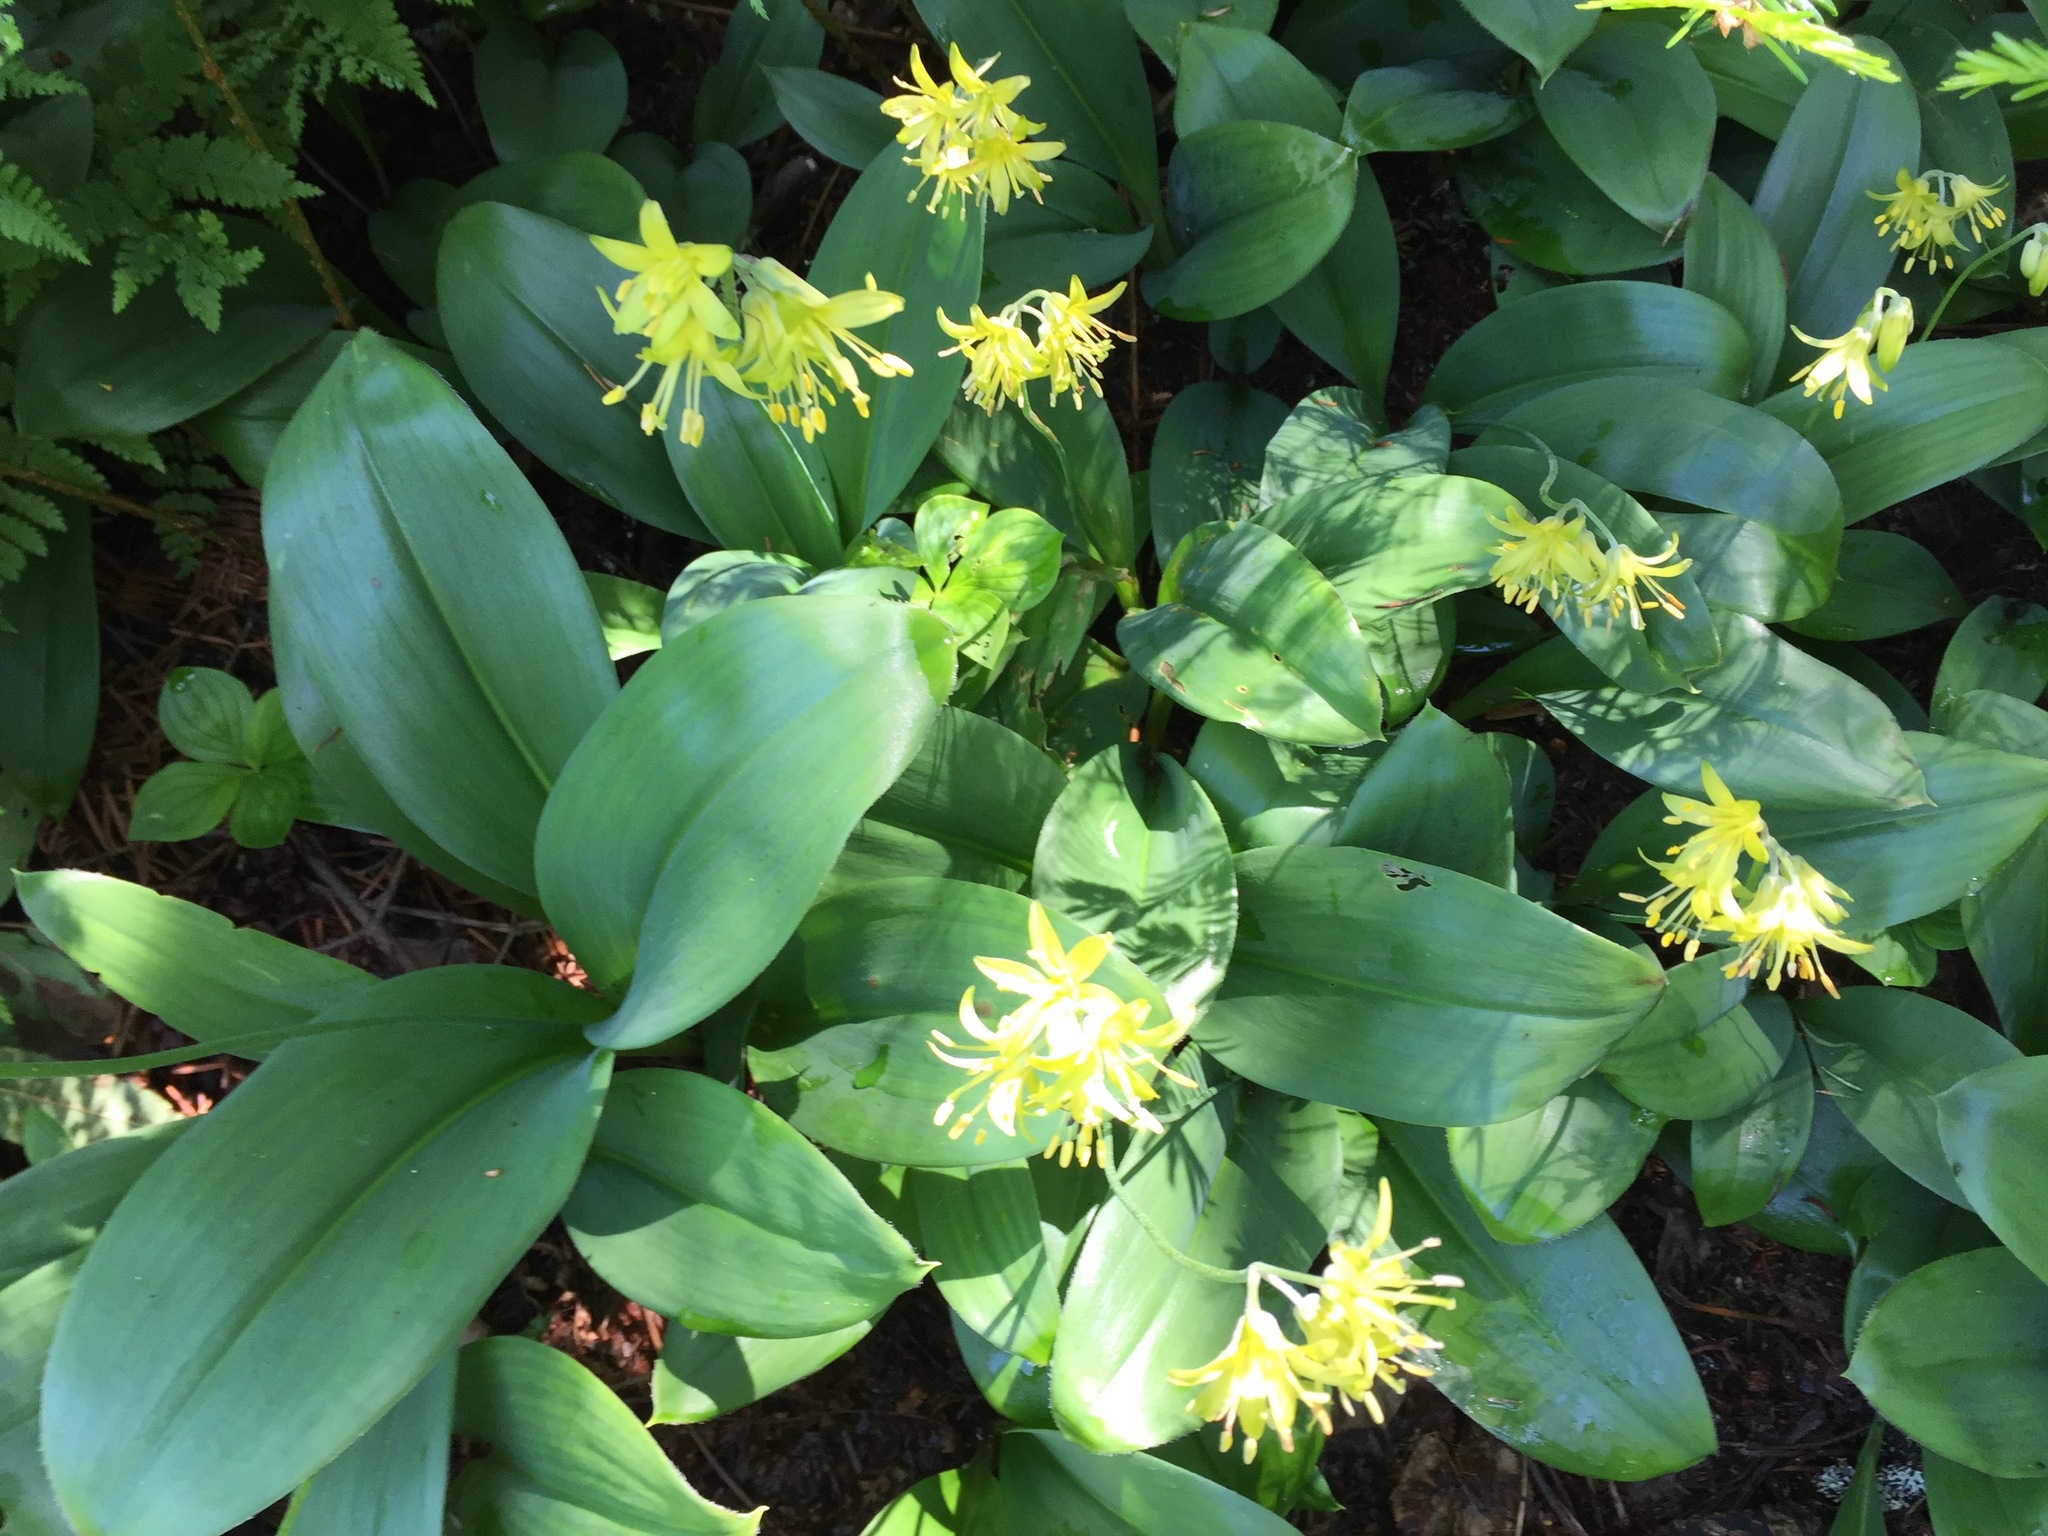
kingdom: Plantae
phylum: Tracheophyta
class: Liliopsida
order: Liliales
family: Liliaceae
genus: Clintonia
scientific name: Clintonia borealis
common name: Yellow clintonia
